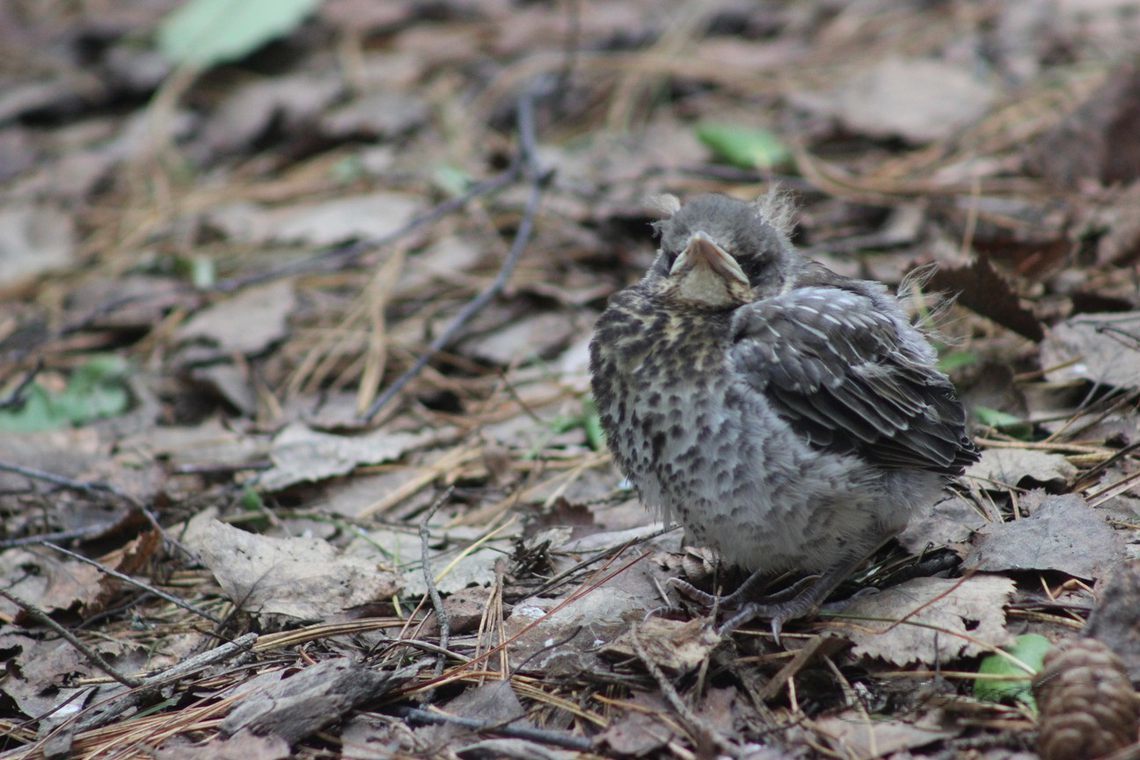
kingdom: Animalia
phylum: Chordata
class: Aves
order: Passeriformes
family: Turdidae
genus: Turdus
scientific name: Turdus pilaris
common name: Fieldfare
